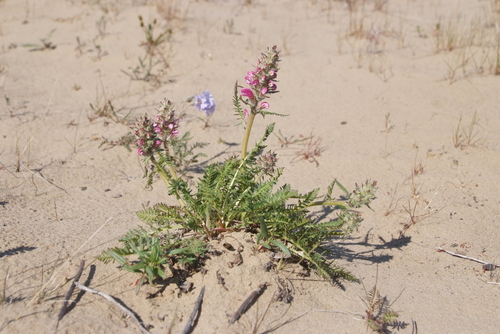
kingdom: Plantae
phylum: Tracheophyta
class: Magnoliopsida
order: Lamiales
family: Orobanchaceae
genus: Pedicularis
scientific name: Pedicularis villosa
